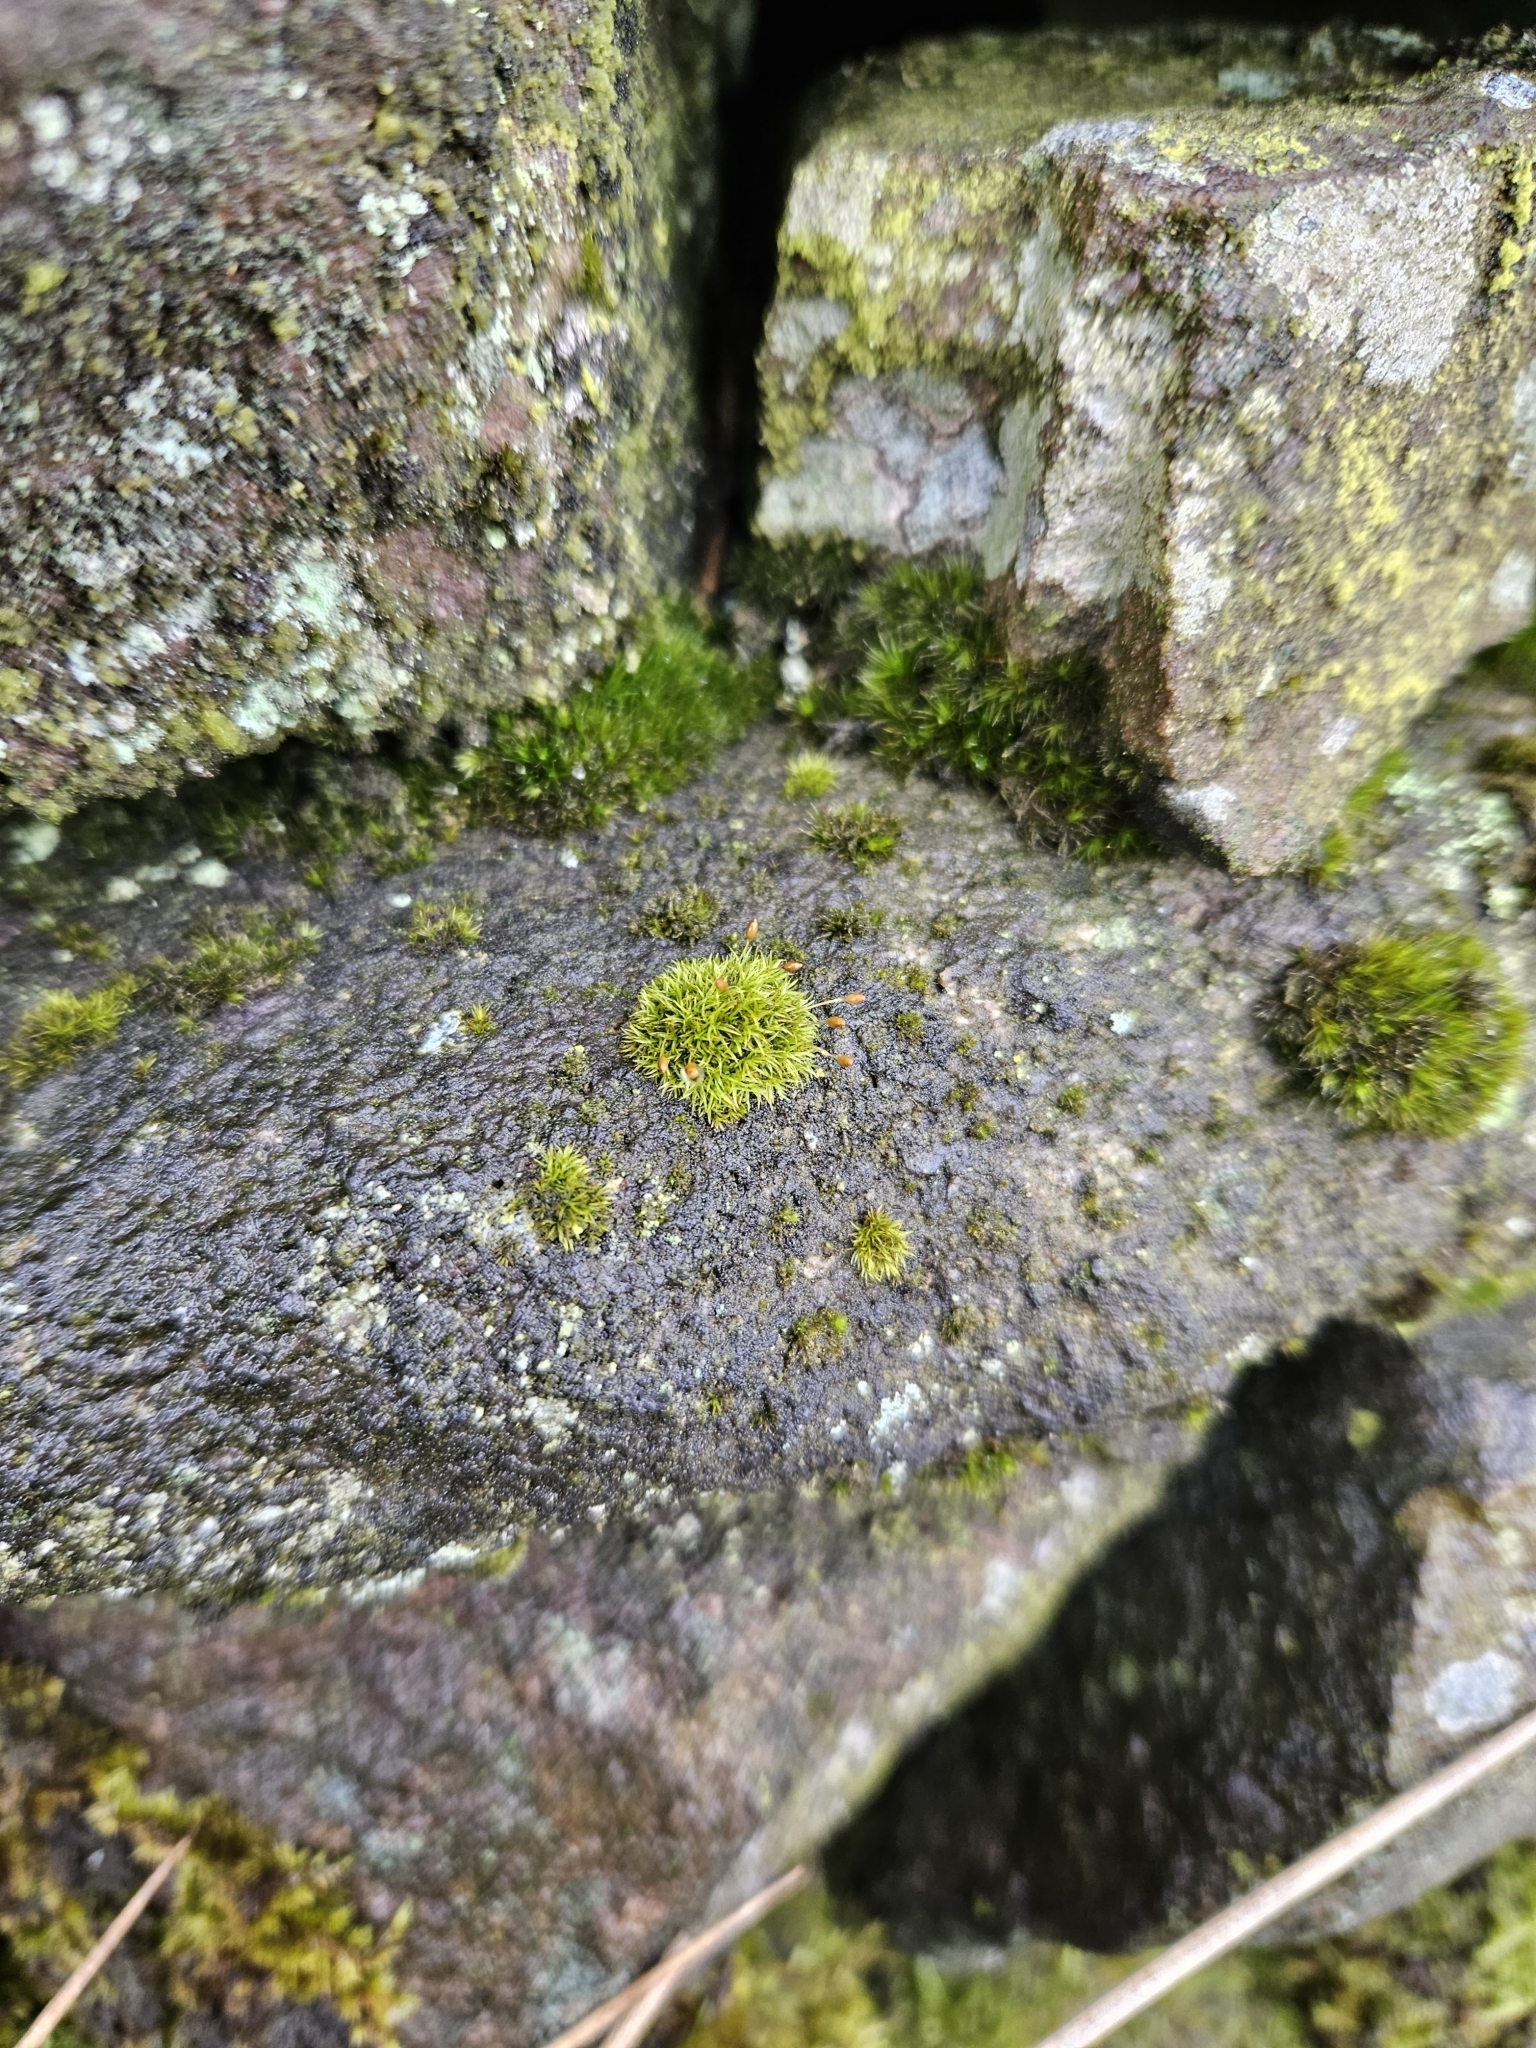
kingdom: Plantae
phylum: Bryophyta
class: Bryopsida
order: Dicranales
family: Rhabdoweisiaceae
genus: Dicranoweisia
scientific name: Dicranoweisia cirrata
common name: Common pincushion
